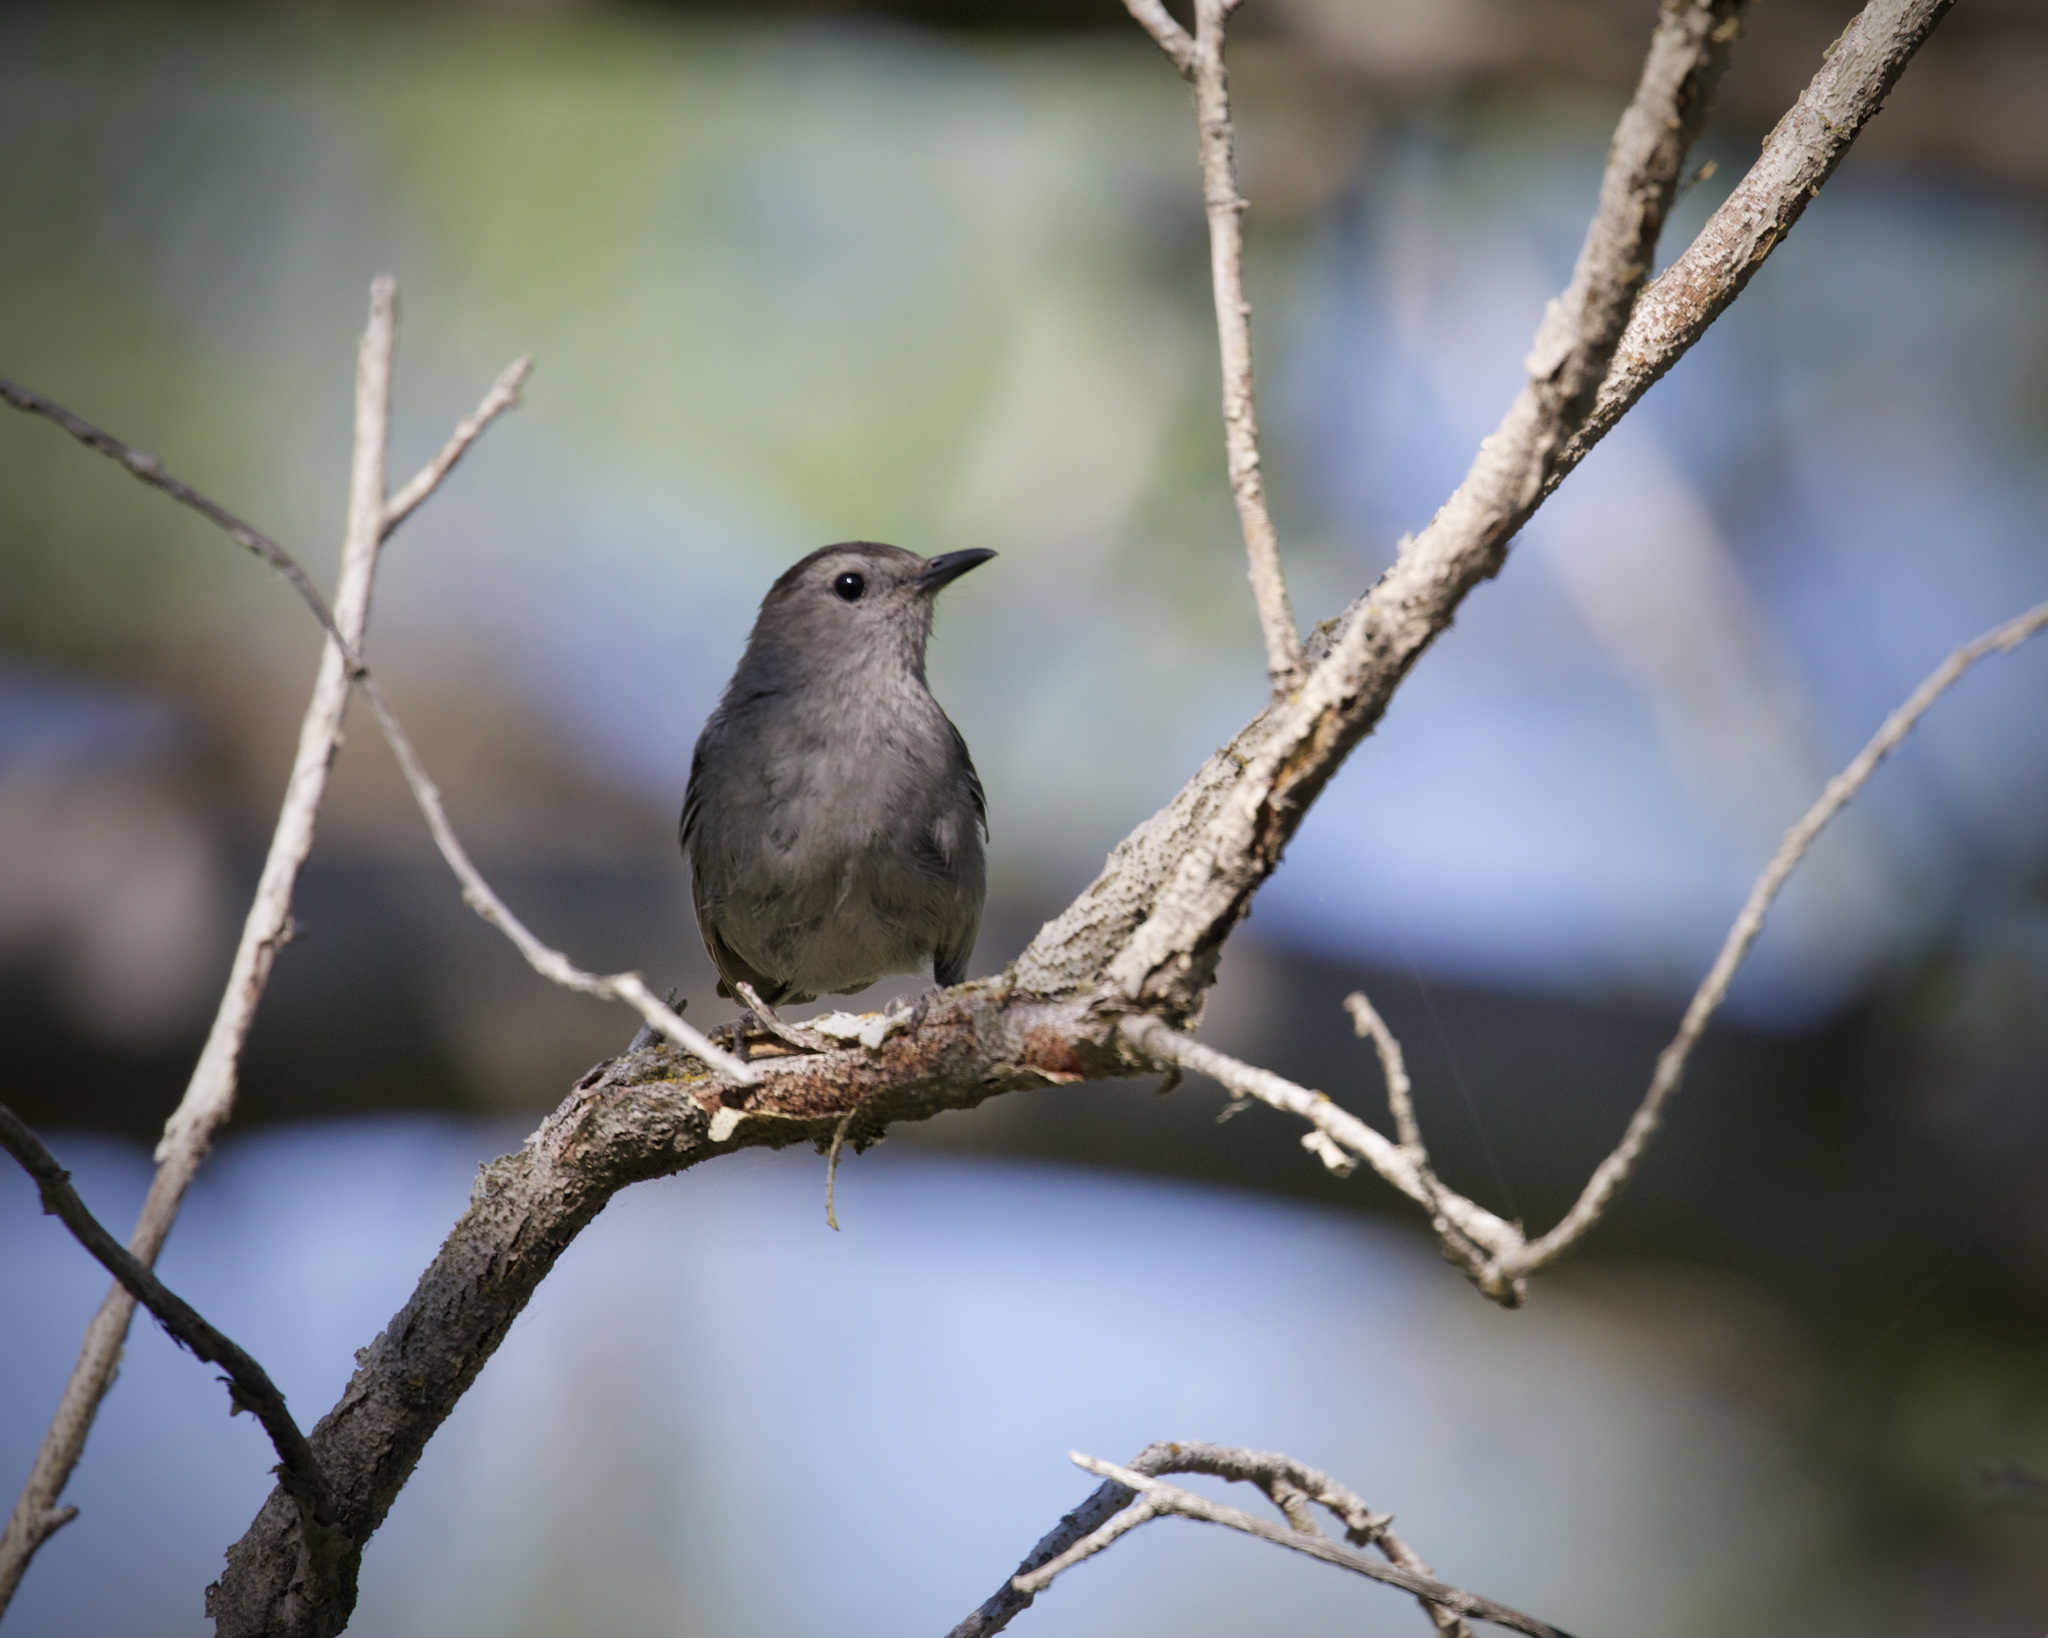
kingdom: Animalia
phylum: Chordata
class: Aves
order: Passeriformes
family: Mimidae
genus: Dumetella
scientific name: Dumetella carolinensis
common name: Gray catbird
